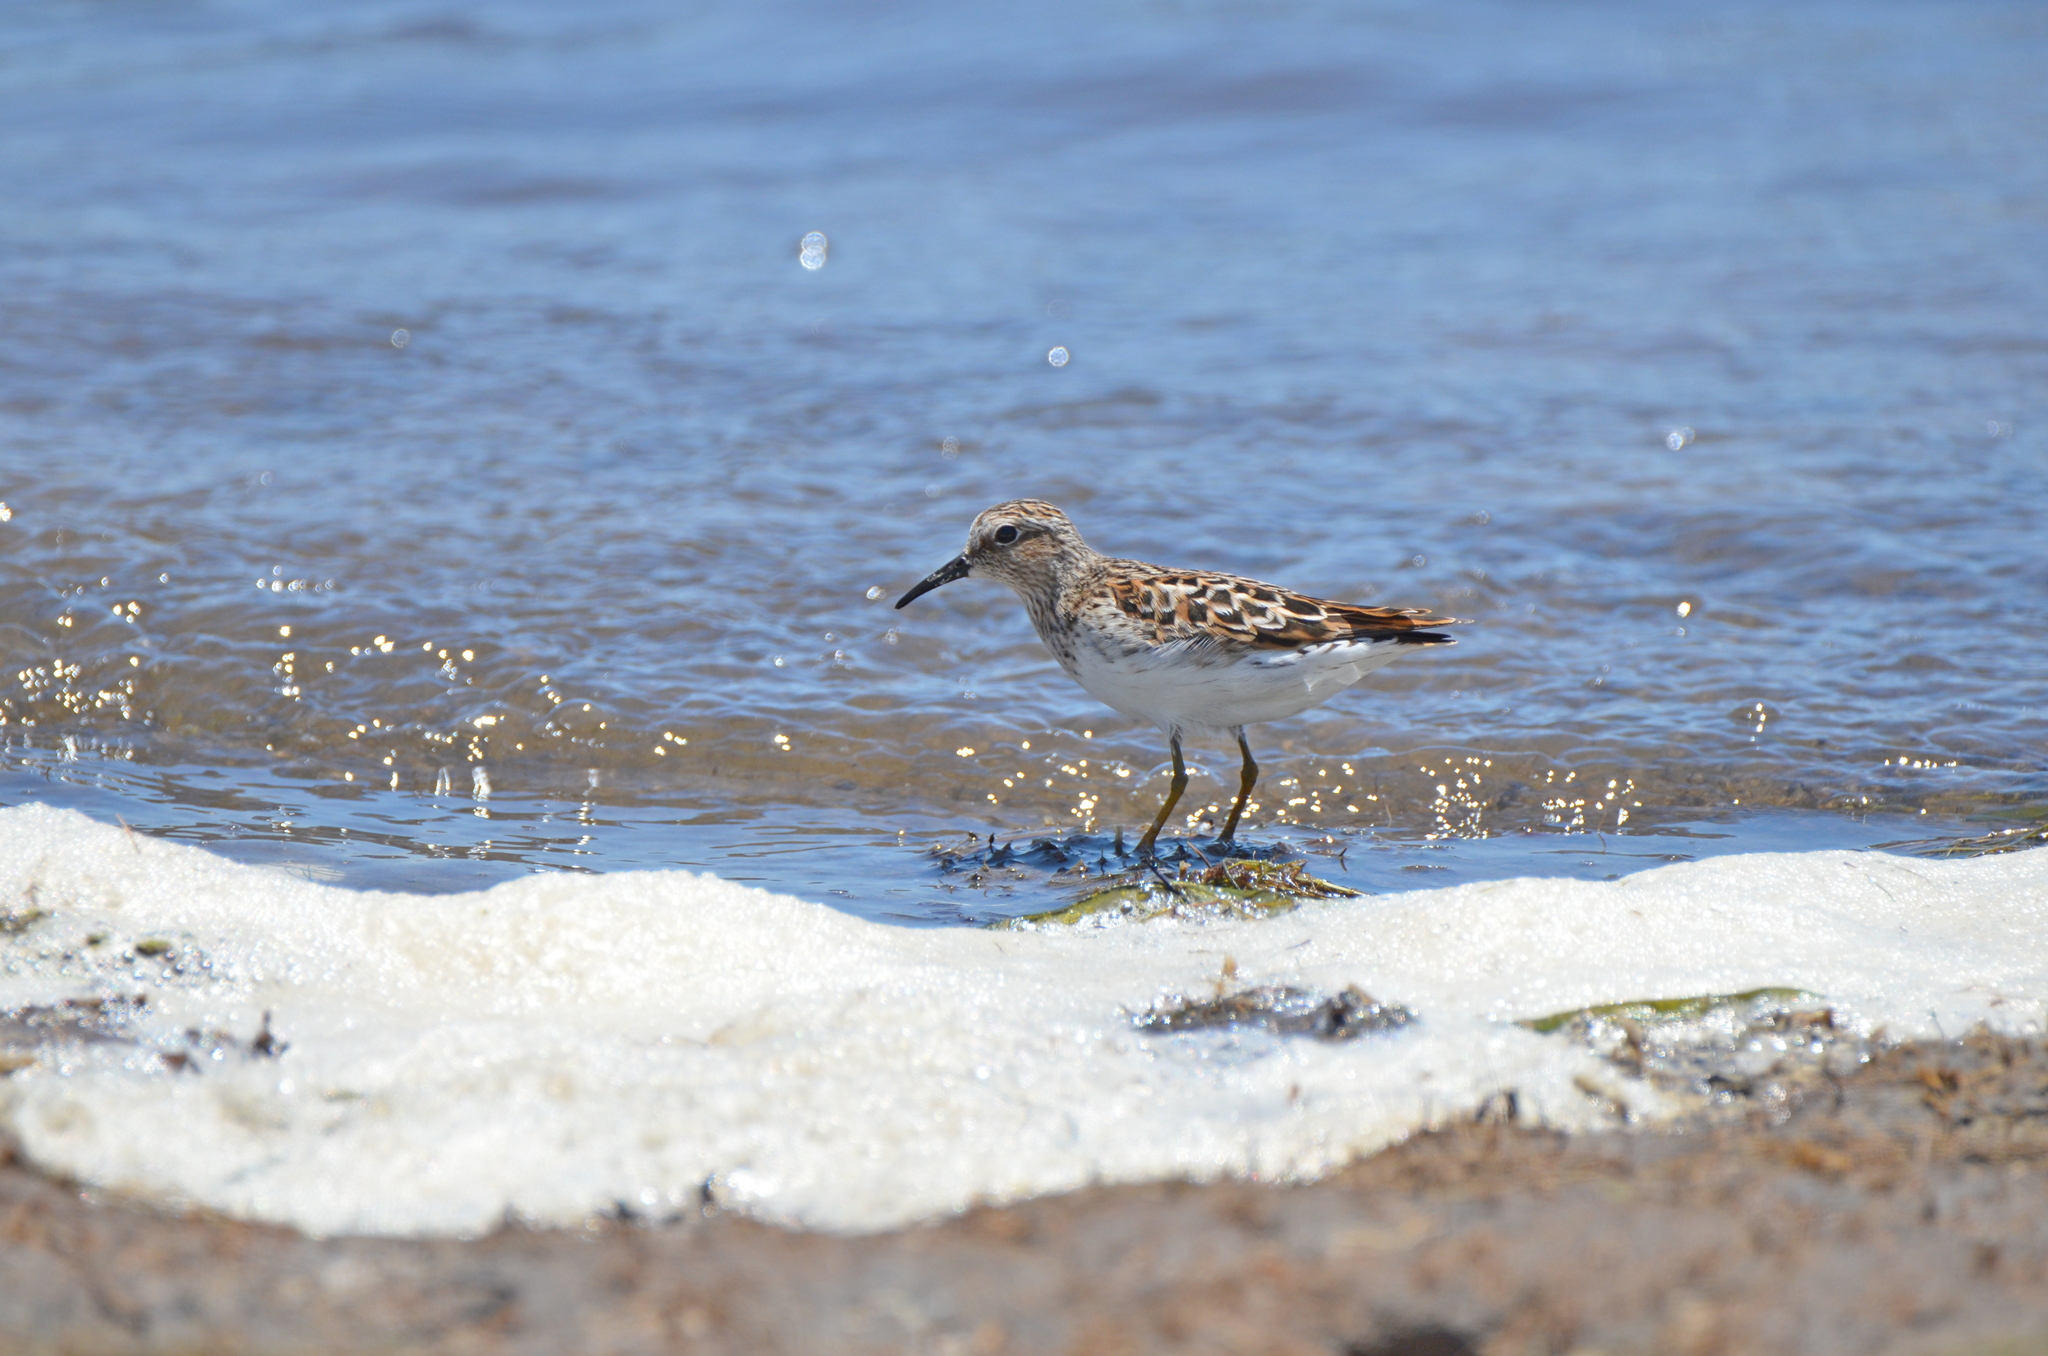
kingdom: Animalia
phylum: Chordata
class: Aves
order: Charadriiformes
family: Scolopacidae
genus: Calidris
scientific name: Calidris minutilla
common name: Least sandpiper
